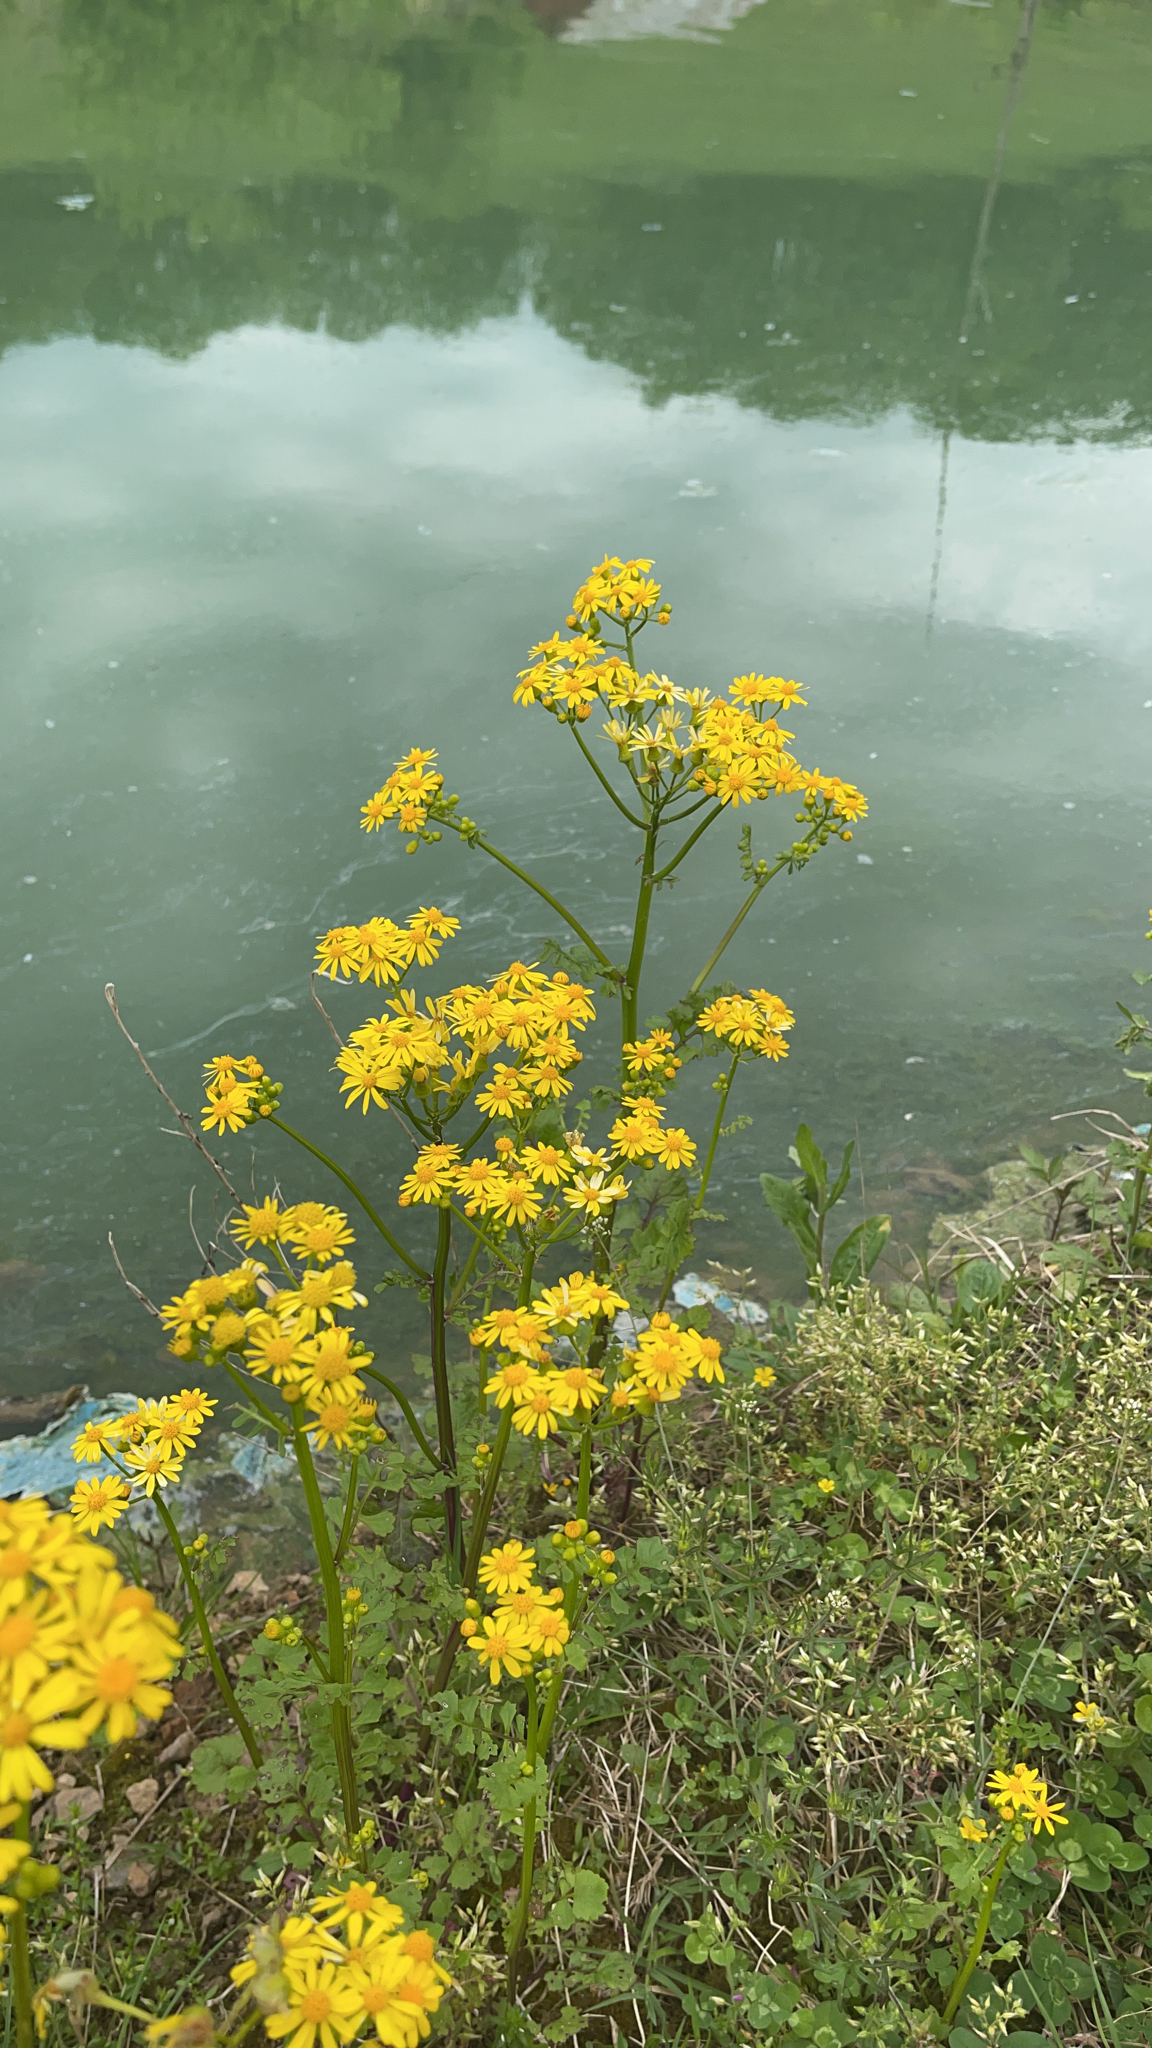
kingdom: Plantae
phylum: Tracheophyta
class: Magnoliopsida
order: Asterales
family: Asteraceae
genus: Packera
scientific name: Packera glabella
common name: Butterweed
